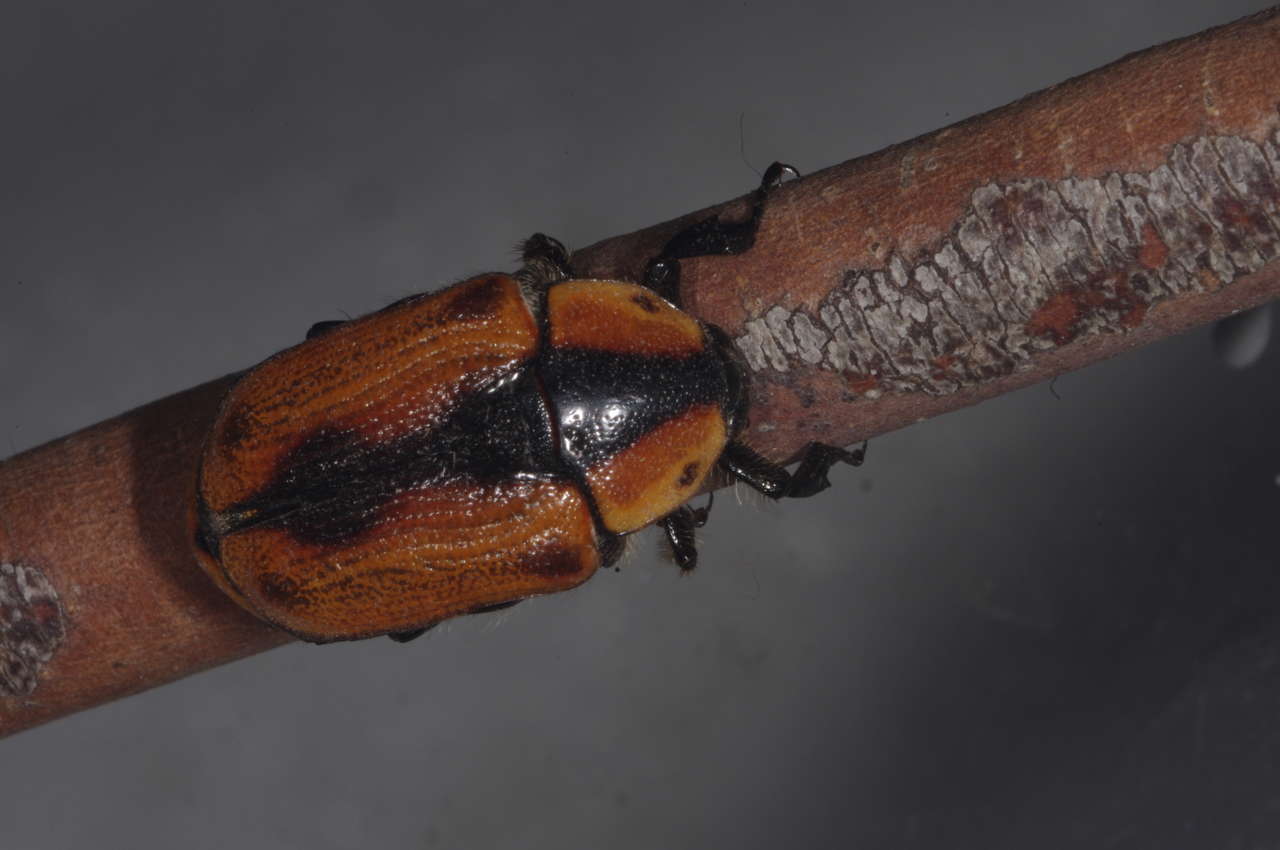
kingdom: Animalia
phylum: Arthropoda
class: Insecta
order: Coleoptera
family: Scarabaeidae
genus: Chondropyga
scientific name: Chondropyga dorsalis
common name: Cowboy beetle
